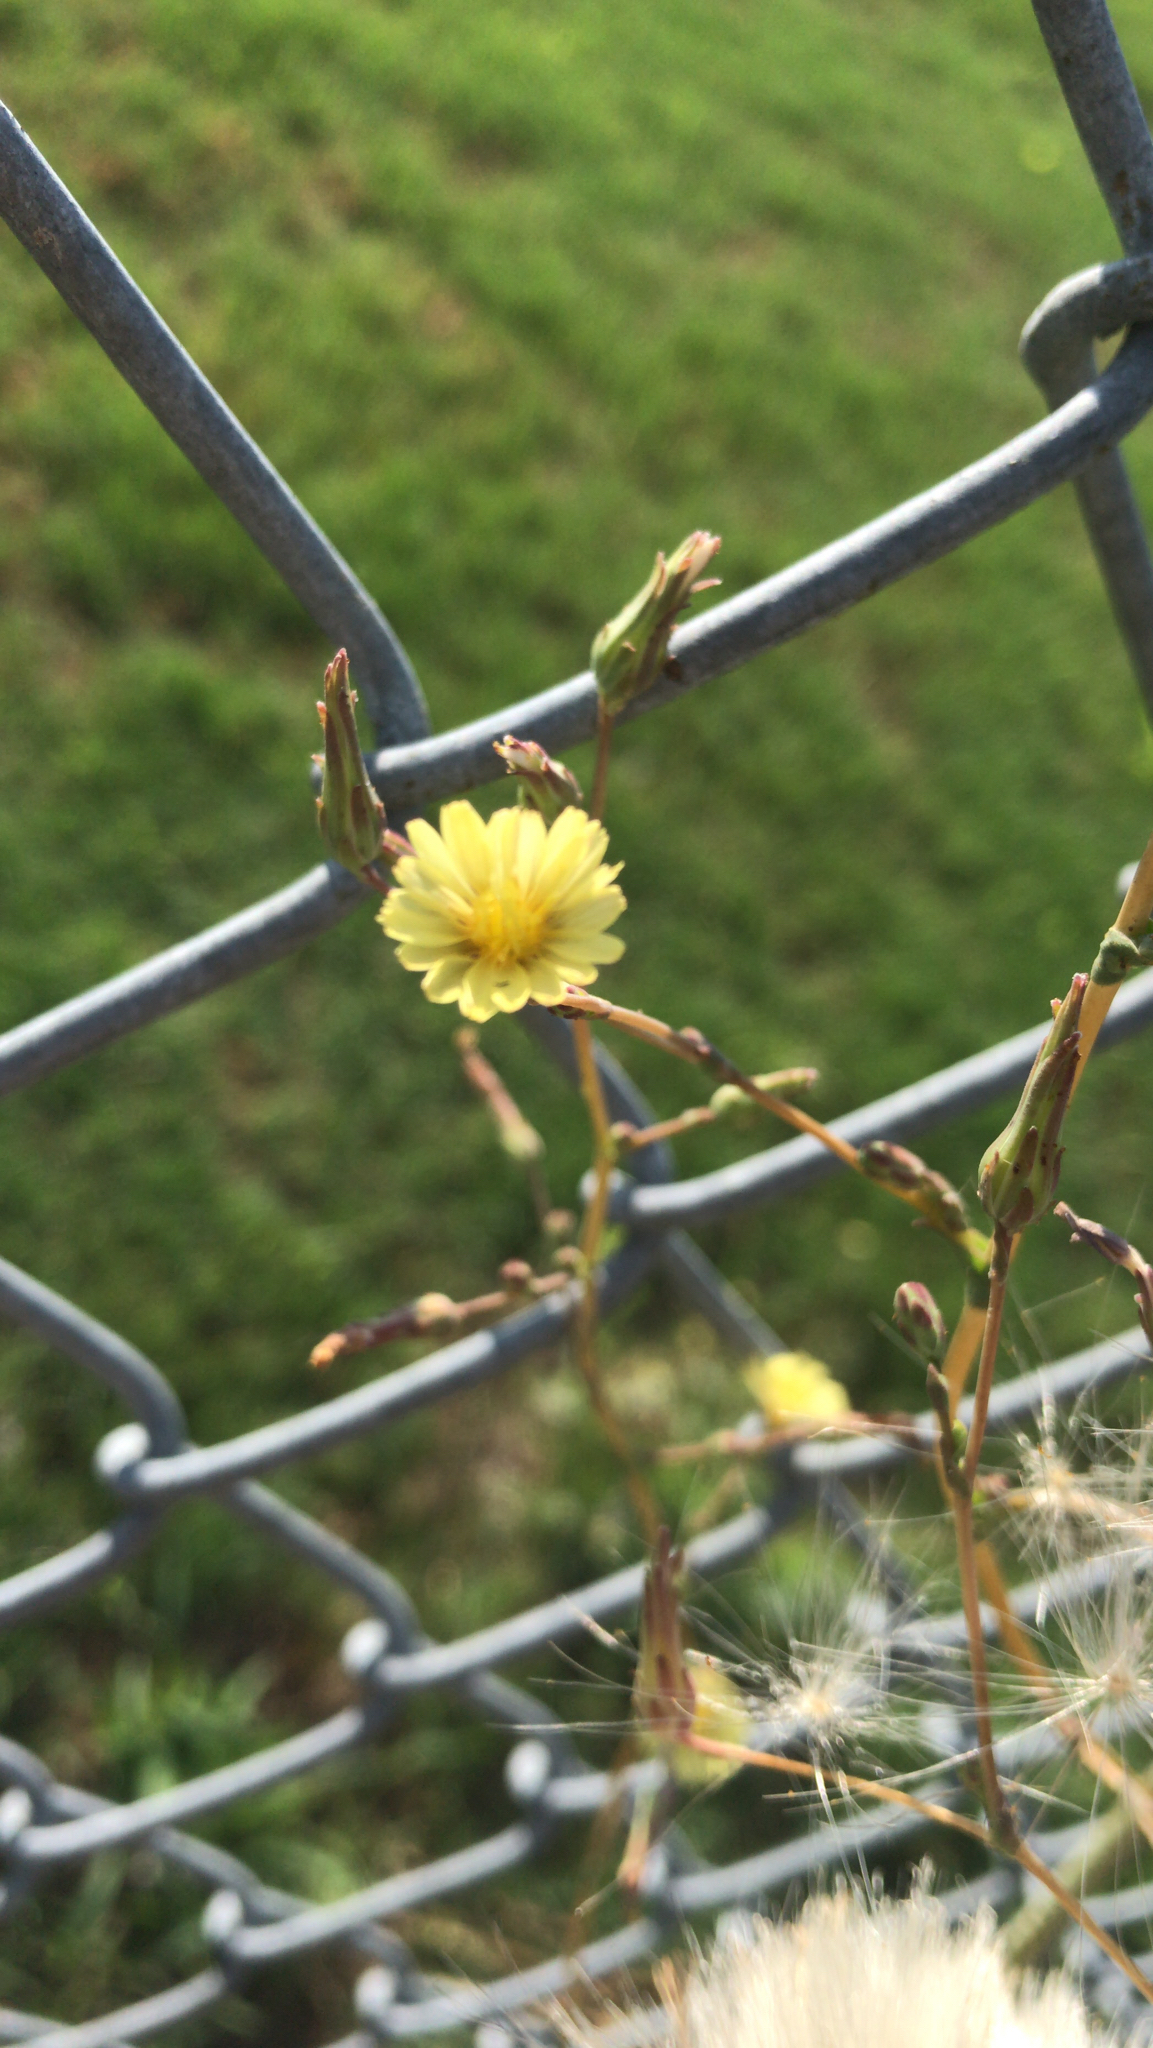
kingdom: Plantae
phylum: Tracheophyta
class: Magnoliopsida
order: Asterales
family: Asteraceae
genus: Lactuca
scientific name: Lactuca serriola
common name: Prickly lettuce
